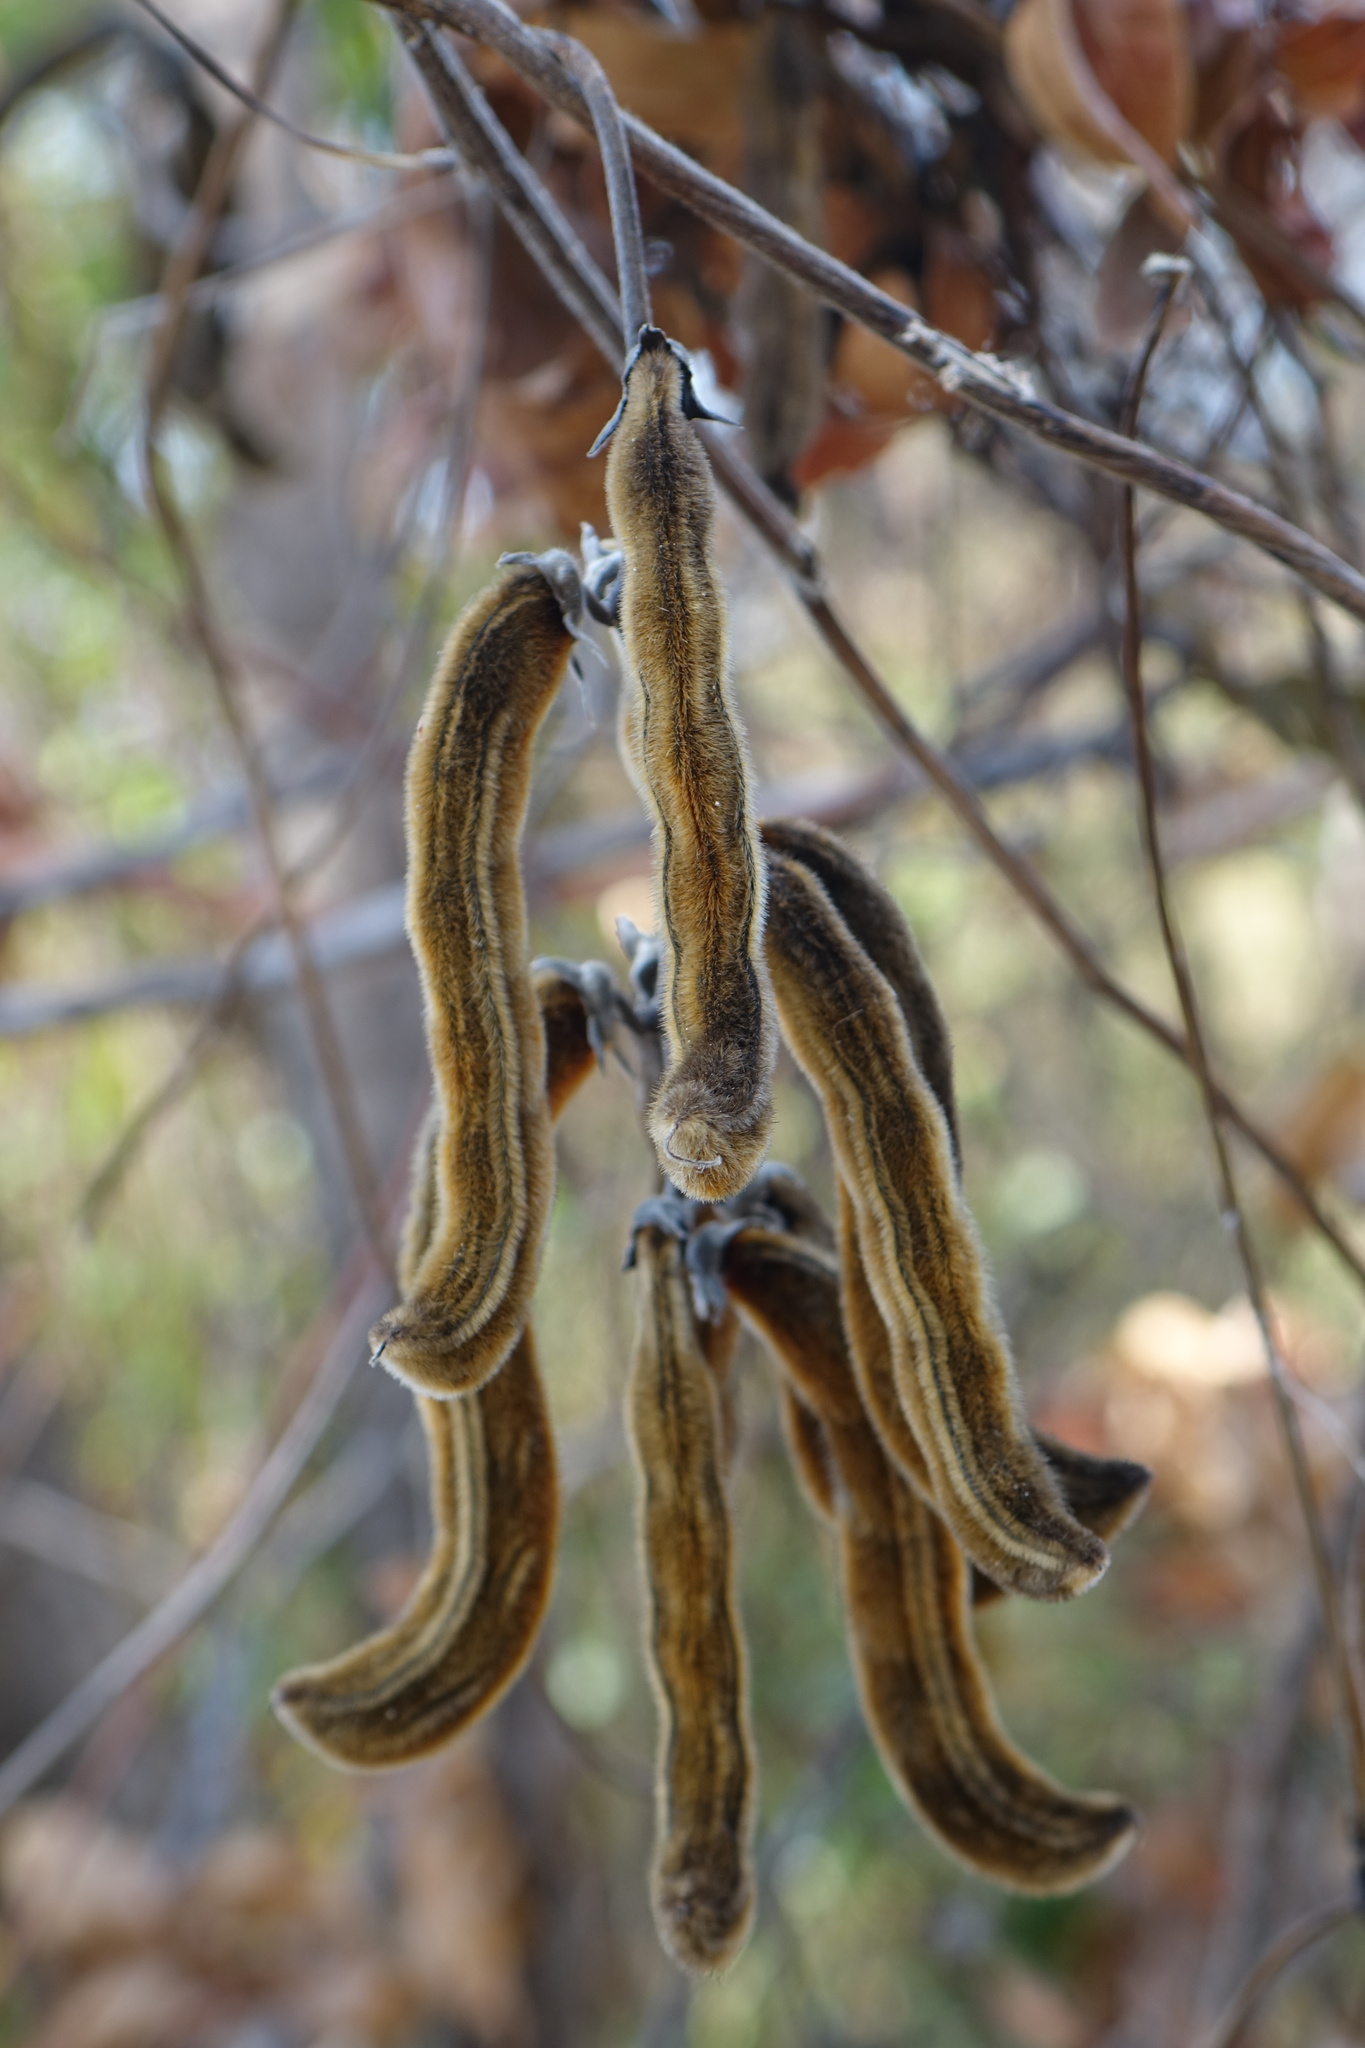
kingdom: Plantae
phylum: Tracheophyta
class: Magnoliopsida
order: Fabales
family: Fabaceae
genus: Mucuna
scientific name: Mucuna pruriens
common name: Cow-itch
